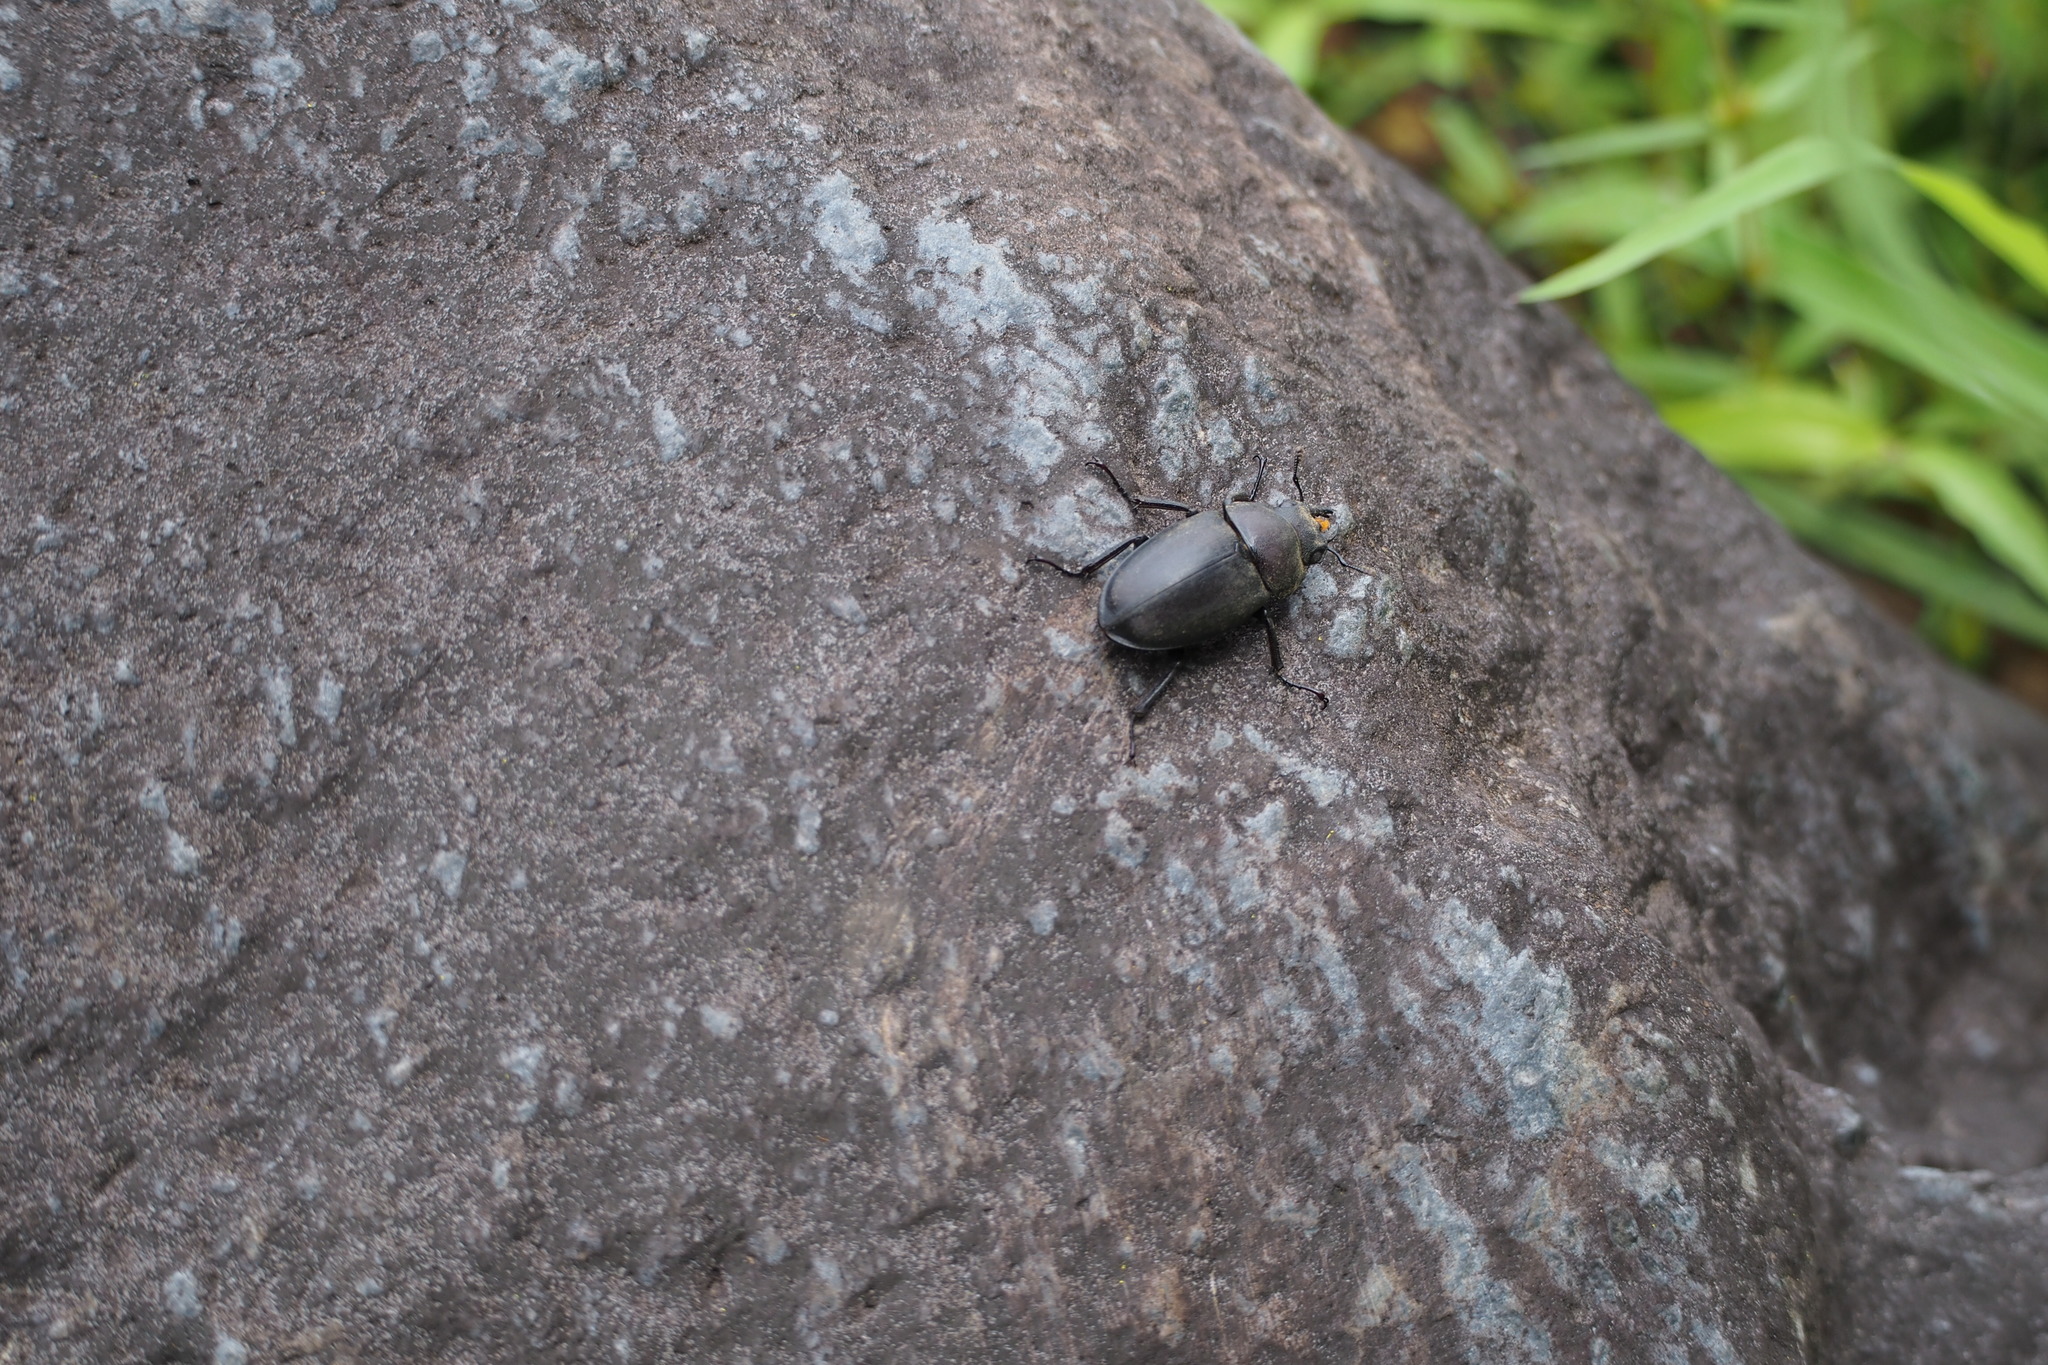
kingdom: Animalia
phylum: Arthropoda
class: Insecta
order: Coleoptera
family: Lucanidae
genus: Prosopocoilus
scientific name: Prosopocoilus inclinatus
